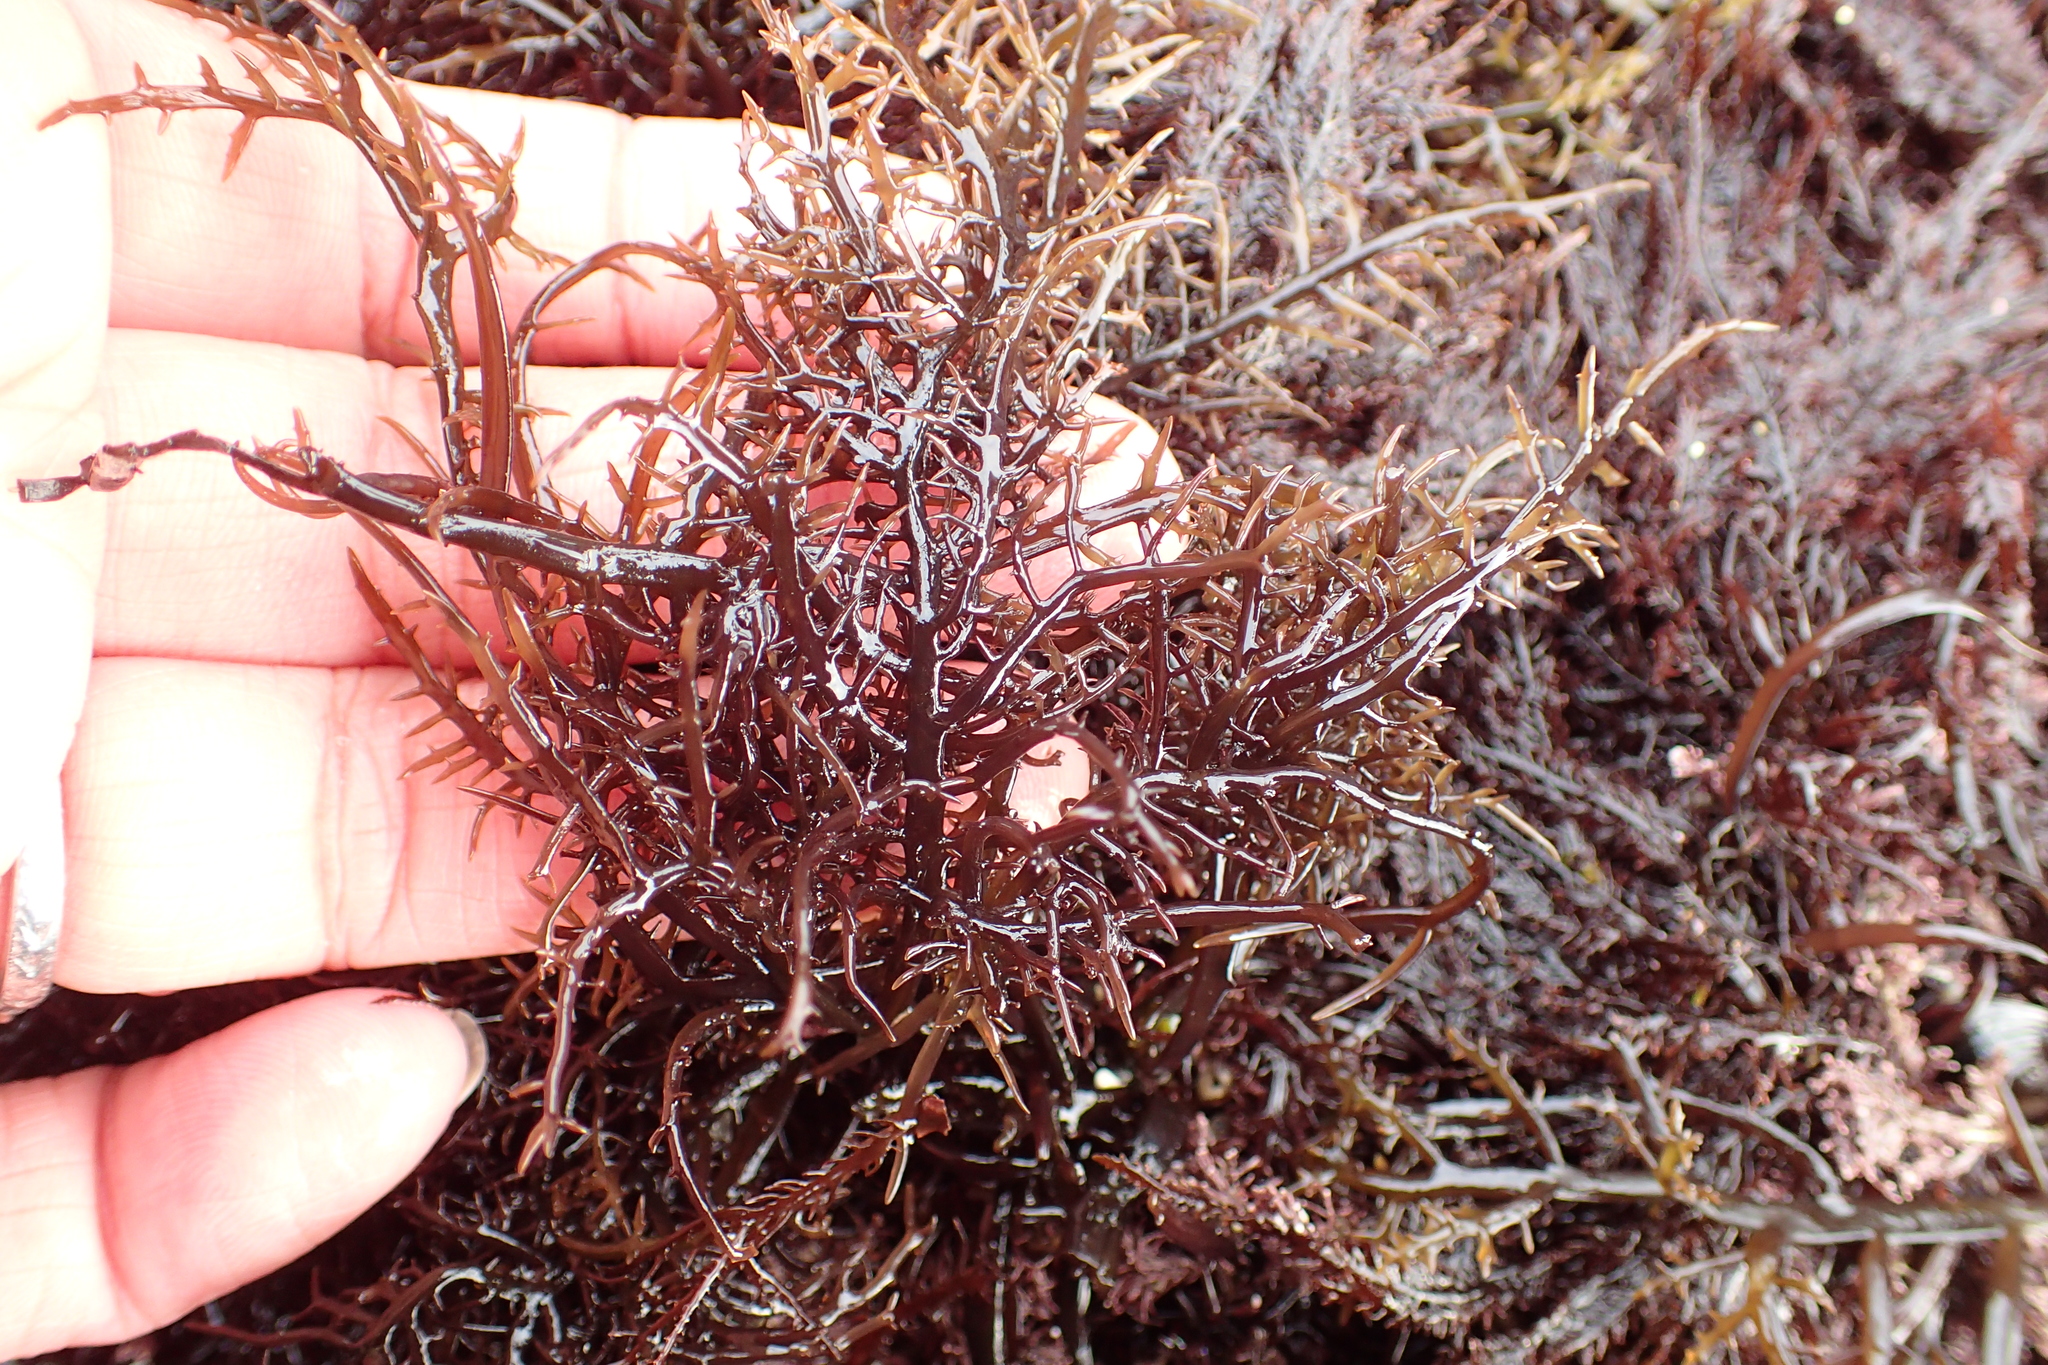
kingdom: Plantae
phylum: Rhodophyta
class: Florideophyceae
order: Gigartinales
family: Gigartinaceae
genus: Chondracanthus
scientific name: Chondracanthus canaliculatus
